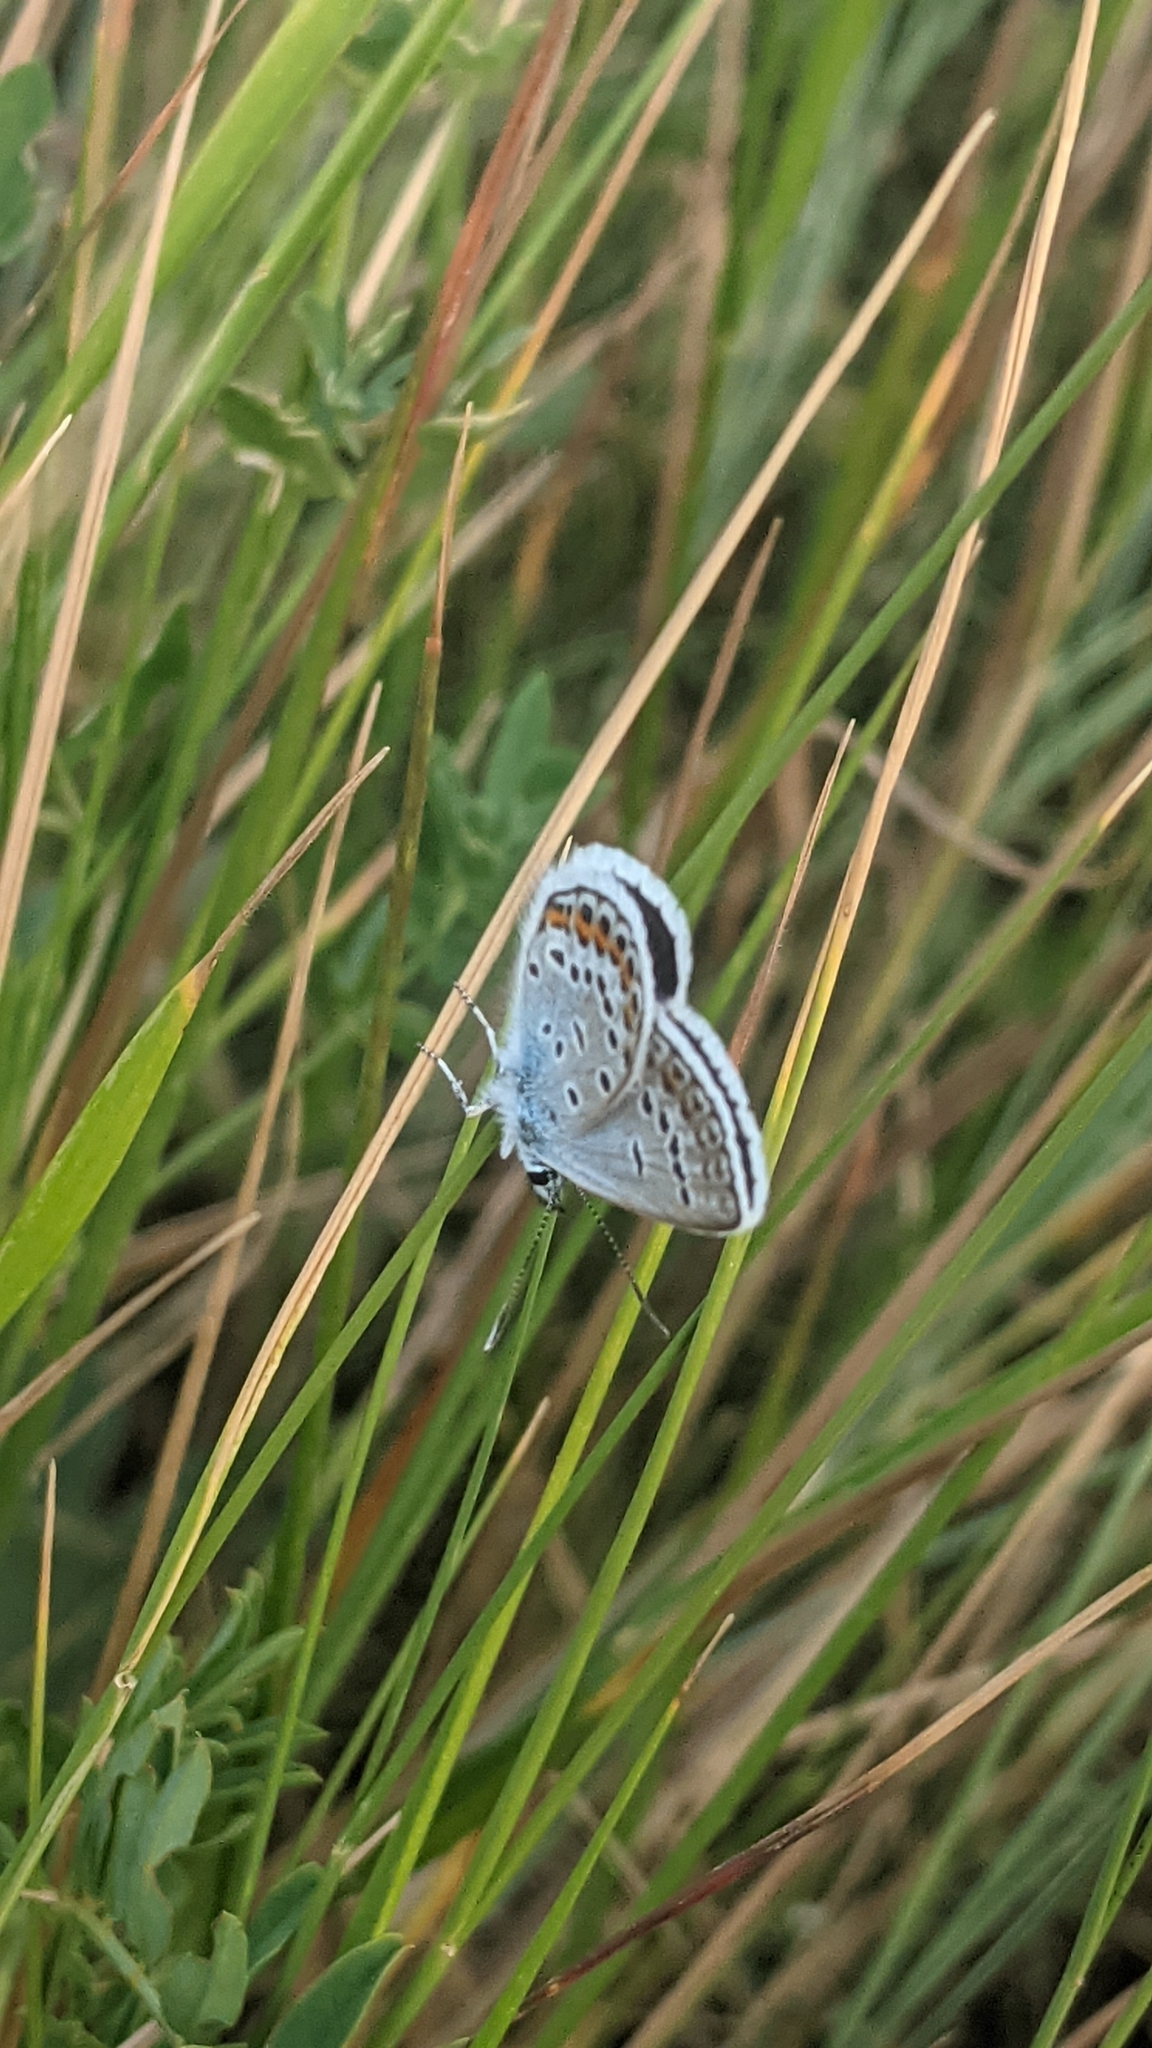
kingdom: Animalia
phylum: Arthropoda
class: Insecta
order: Lepidoptera
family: Lycaenidae
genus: Plebejus
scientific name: Plebejus argus
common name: Silver-studded blue
